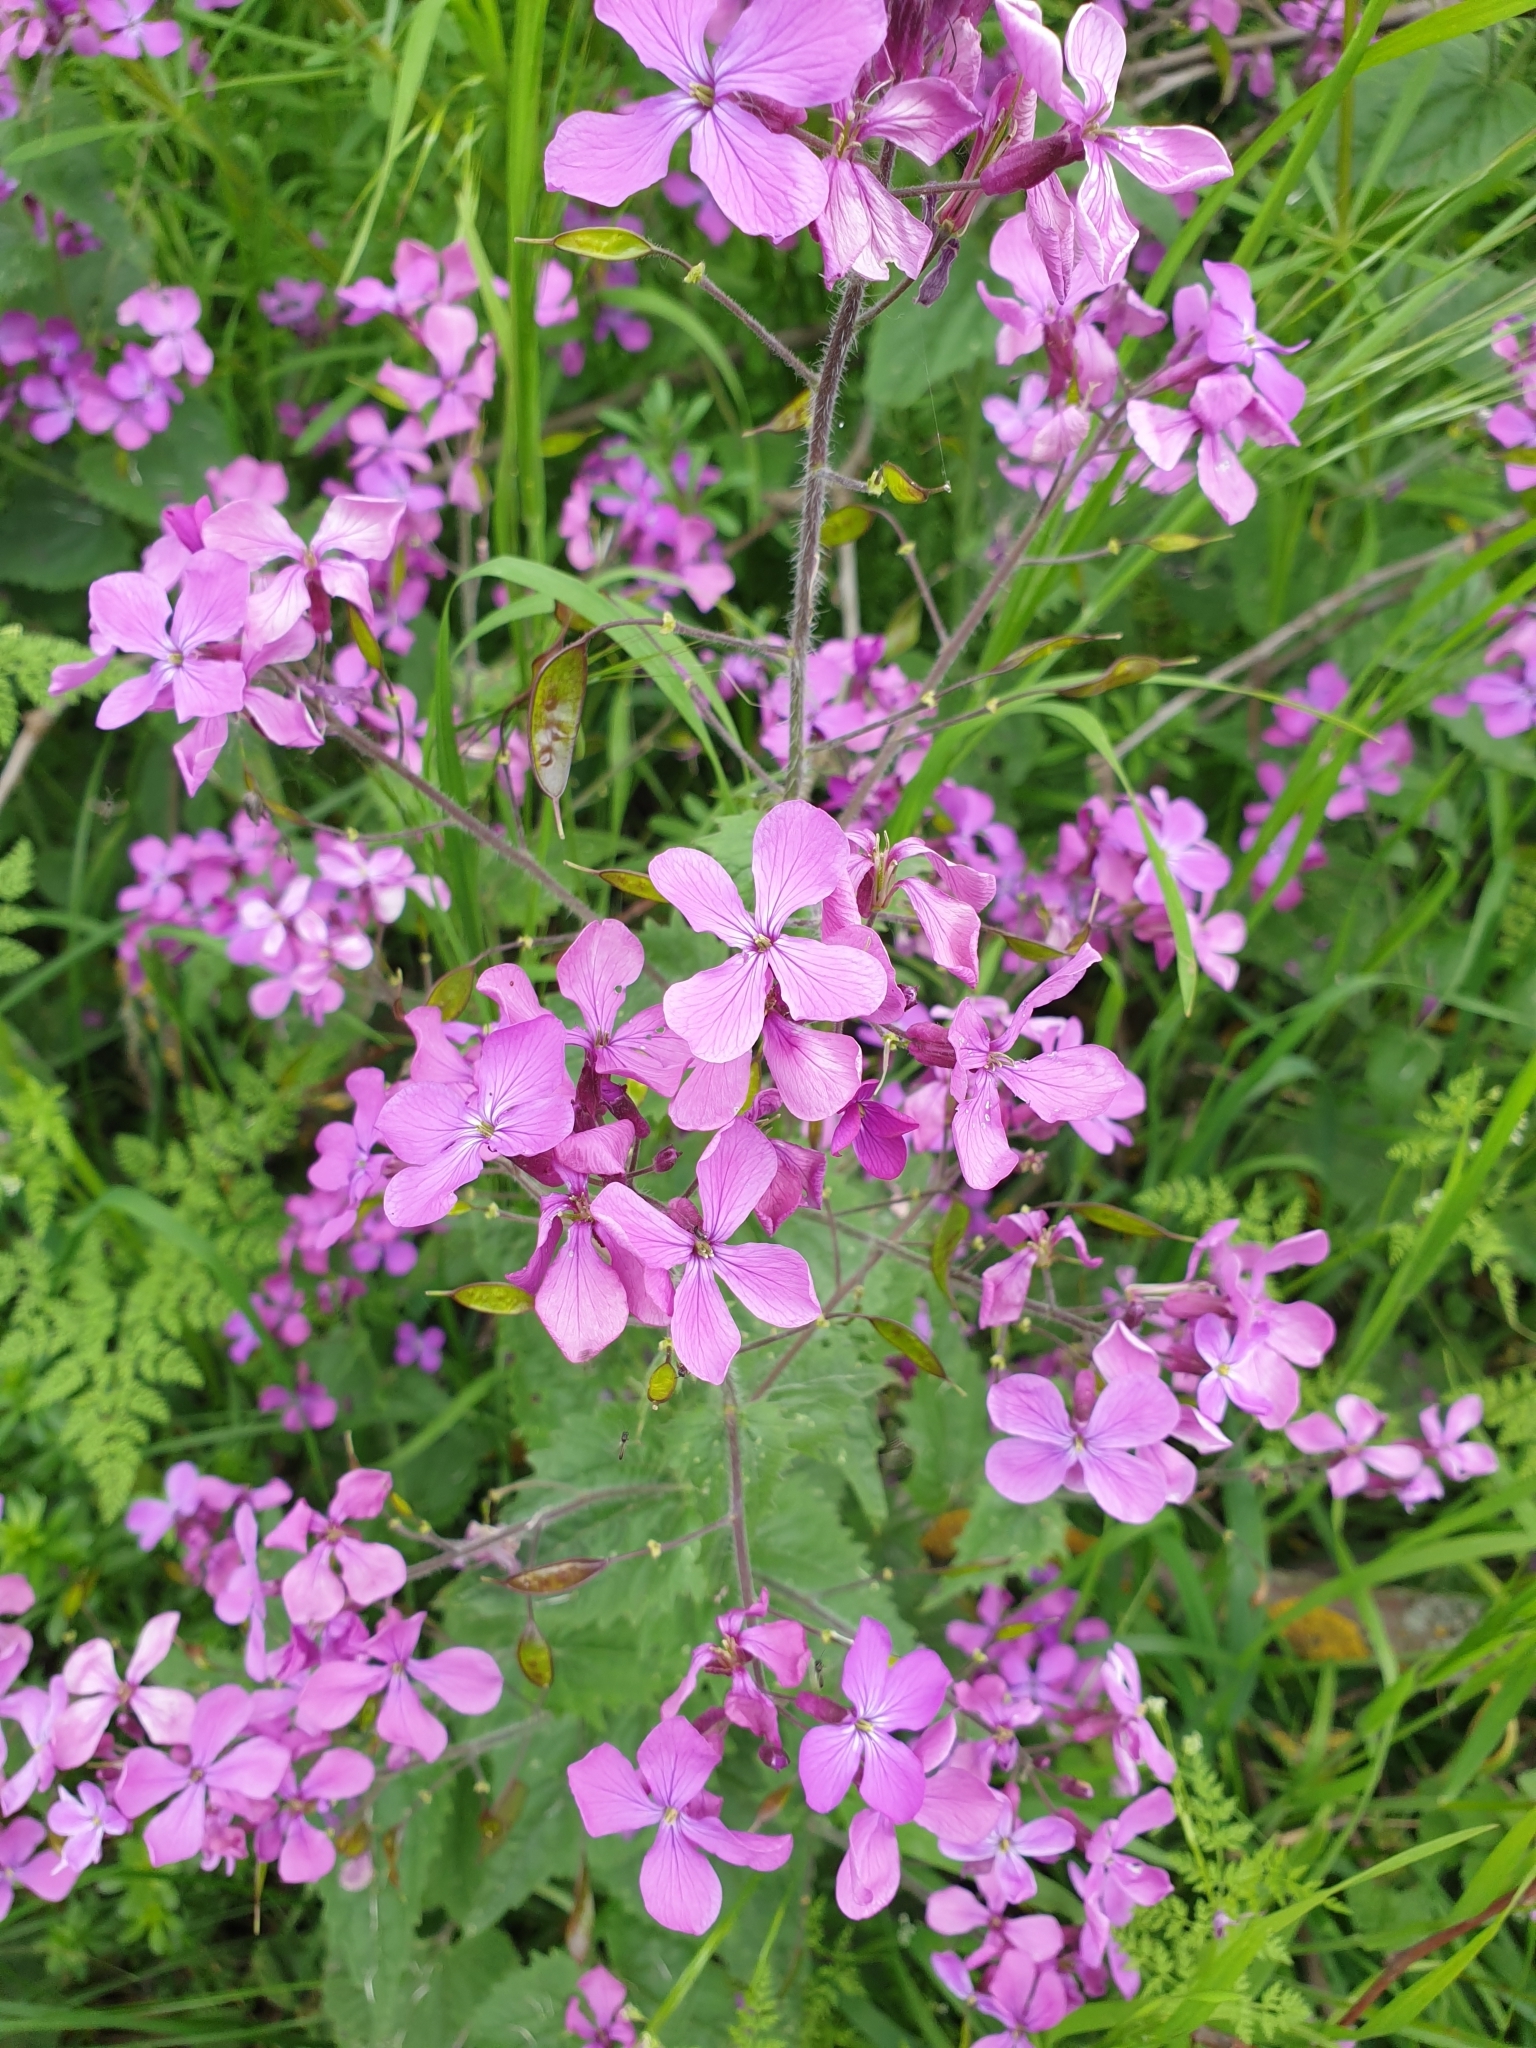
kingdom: Plantae
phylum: Tracheophyta
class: Magnoliopsida
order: Brassicales
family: Brassicaceae
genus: Lunaria
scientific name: Lunaria annua
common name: Honesty
